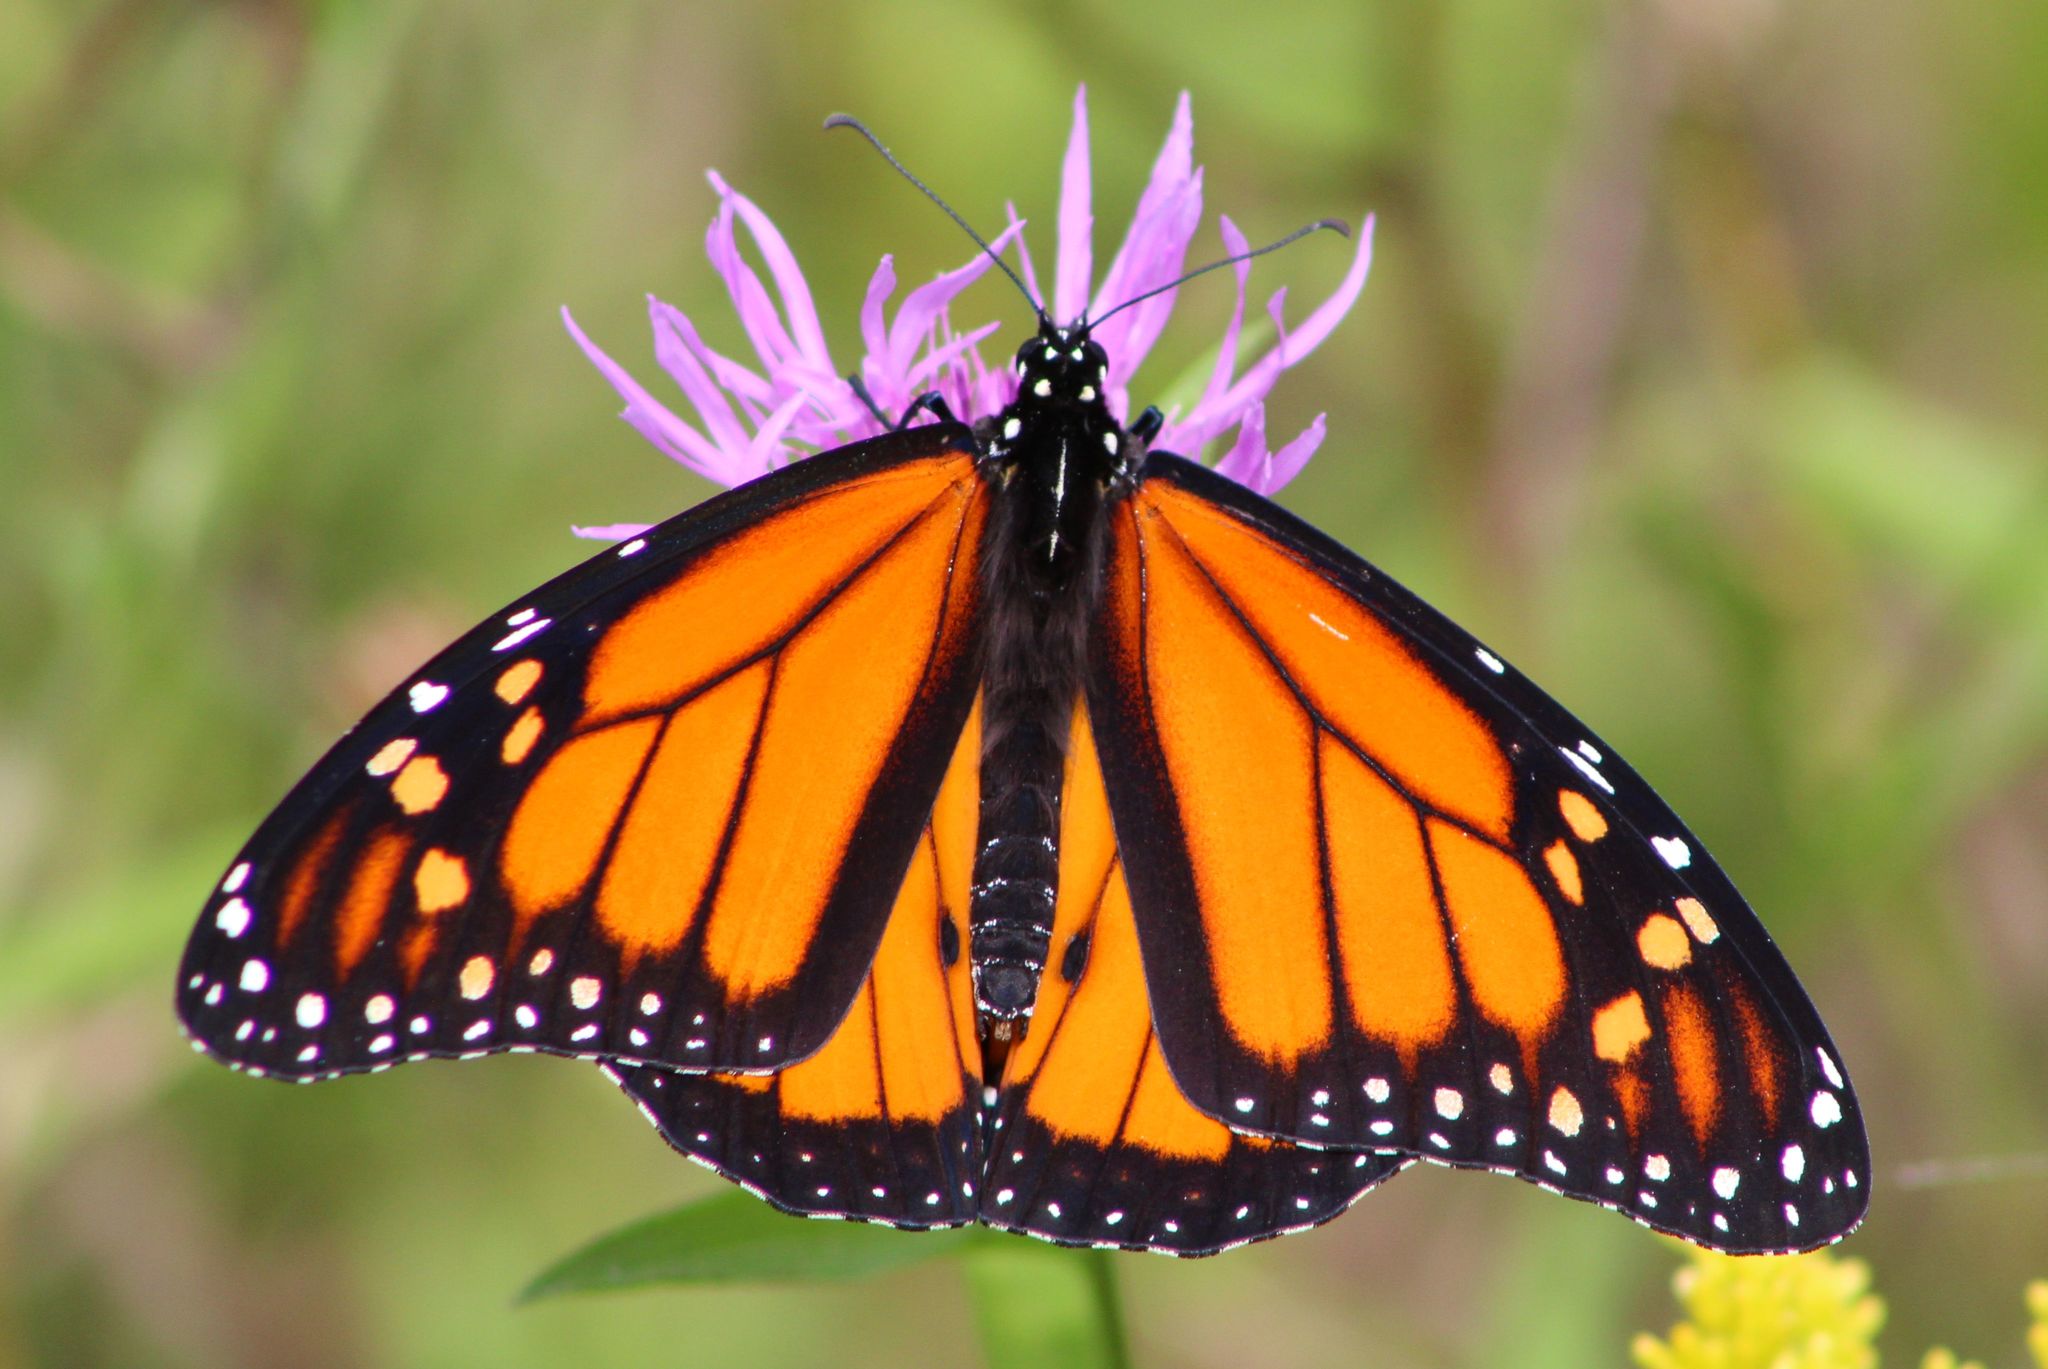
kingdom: Animalia
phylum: Arthropoda
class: Insecta
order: Lepidoptera
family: Nymphalidae
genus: Danaus
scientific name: Danaus plexippus
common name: Monarch
